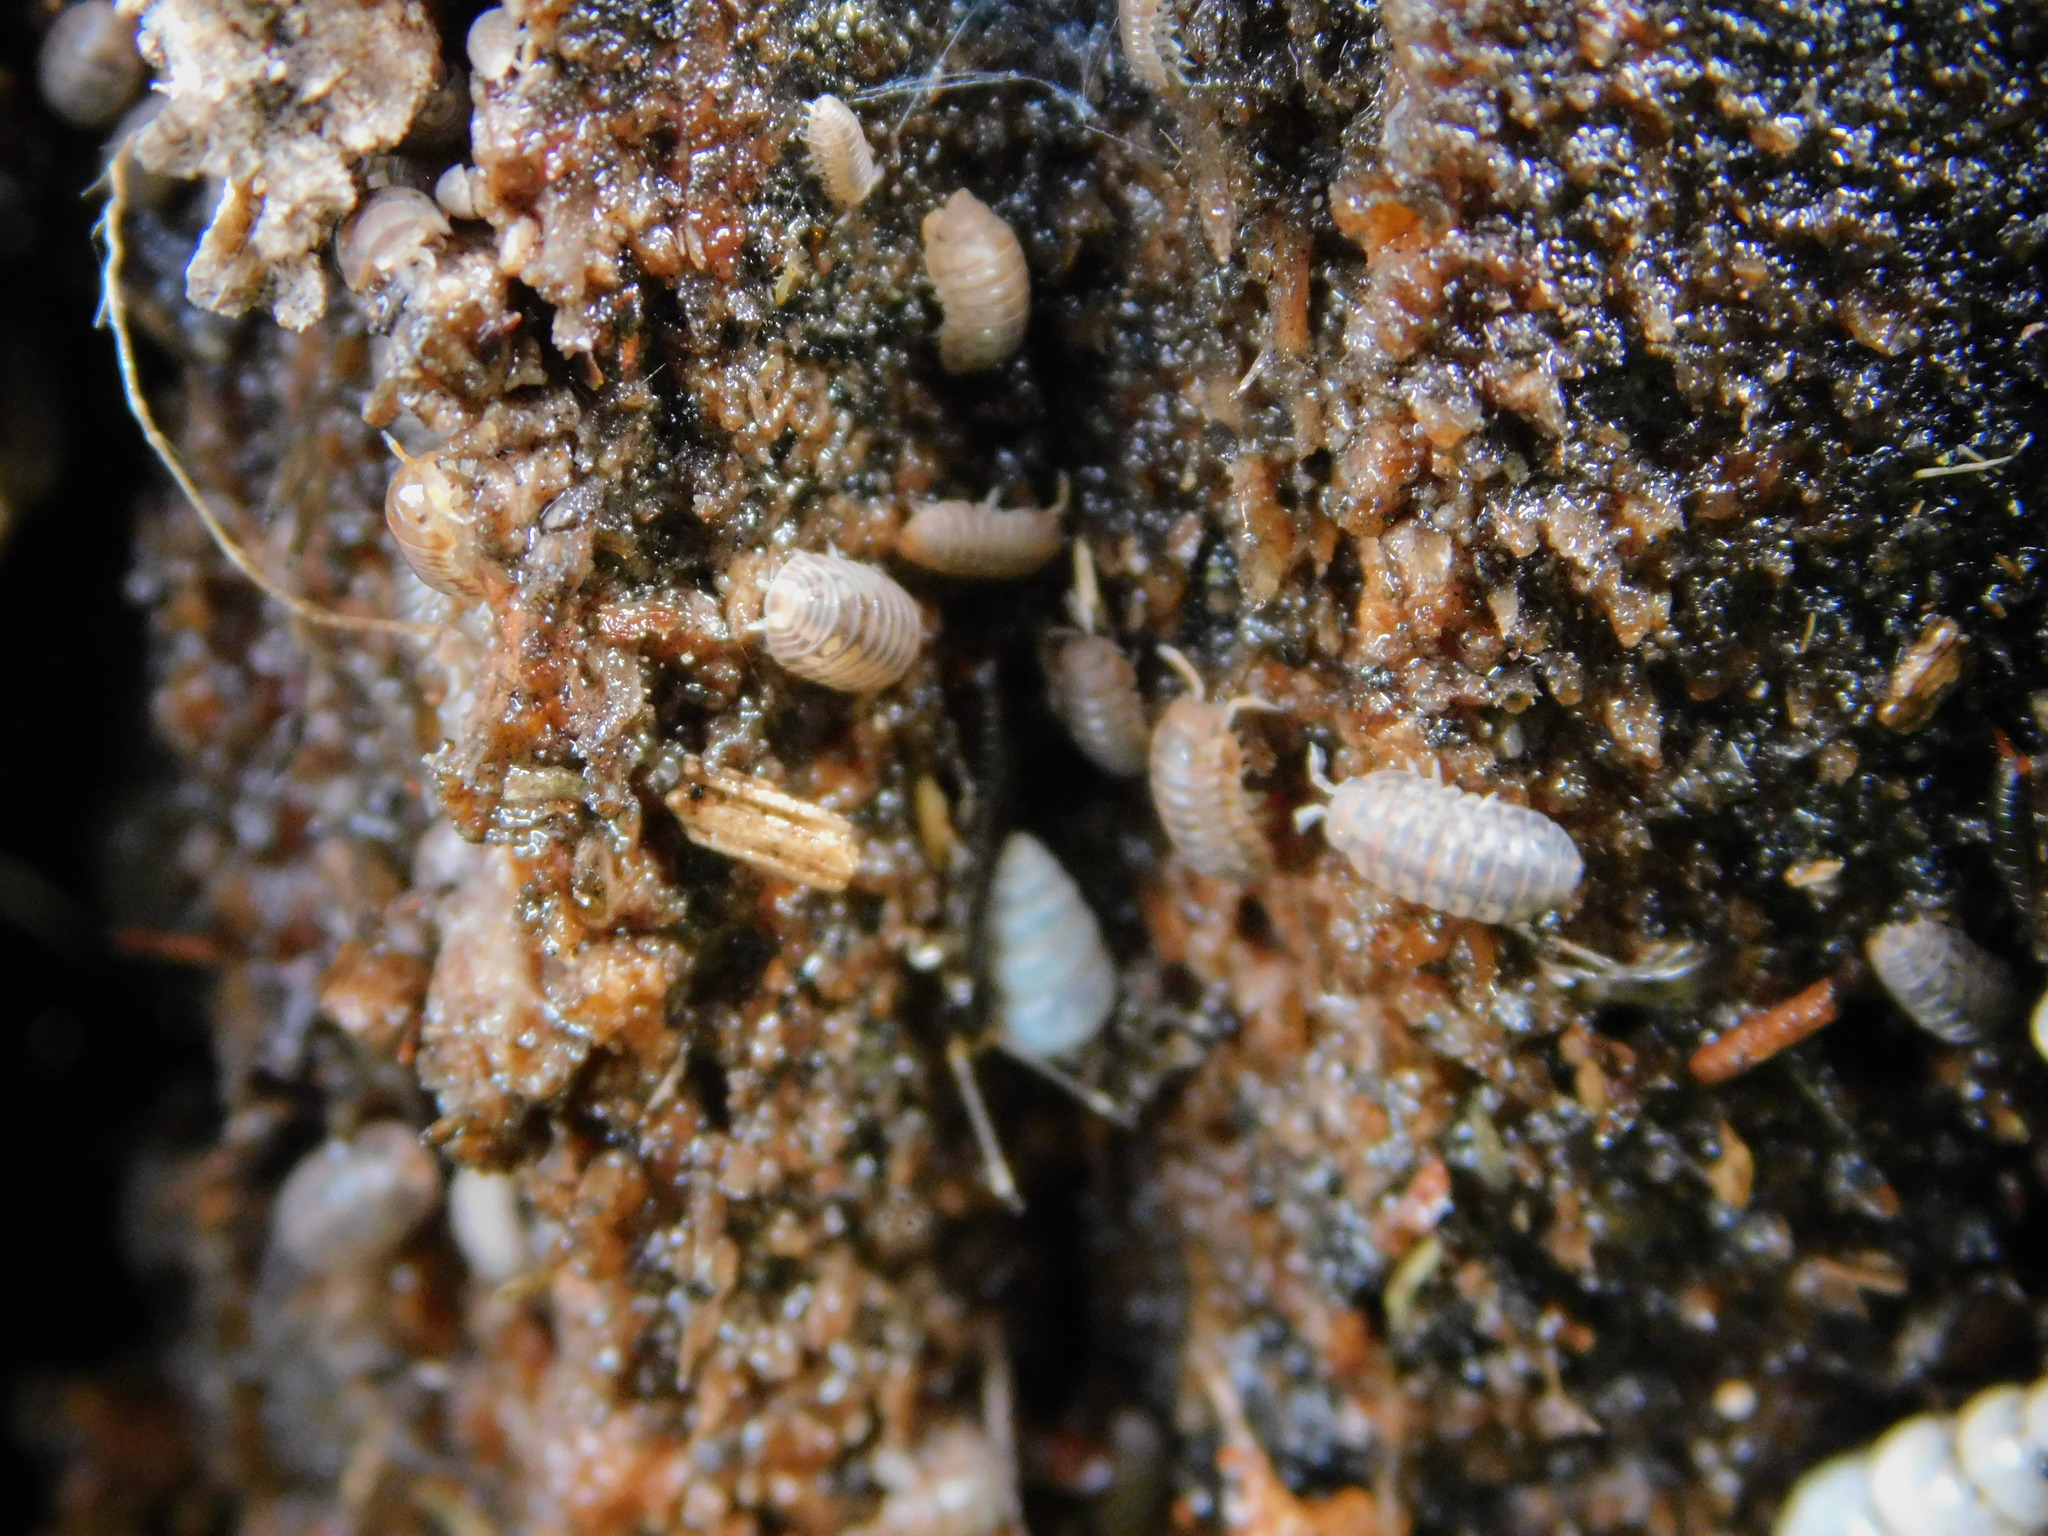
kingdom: Animalia
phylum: Arthropoda
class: Malacostraca
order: Isopoda
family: Armadillidae
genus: Venezillo
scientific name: Venezillo parvus
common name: Pillbug
